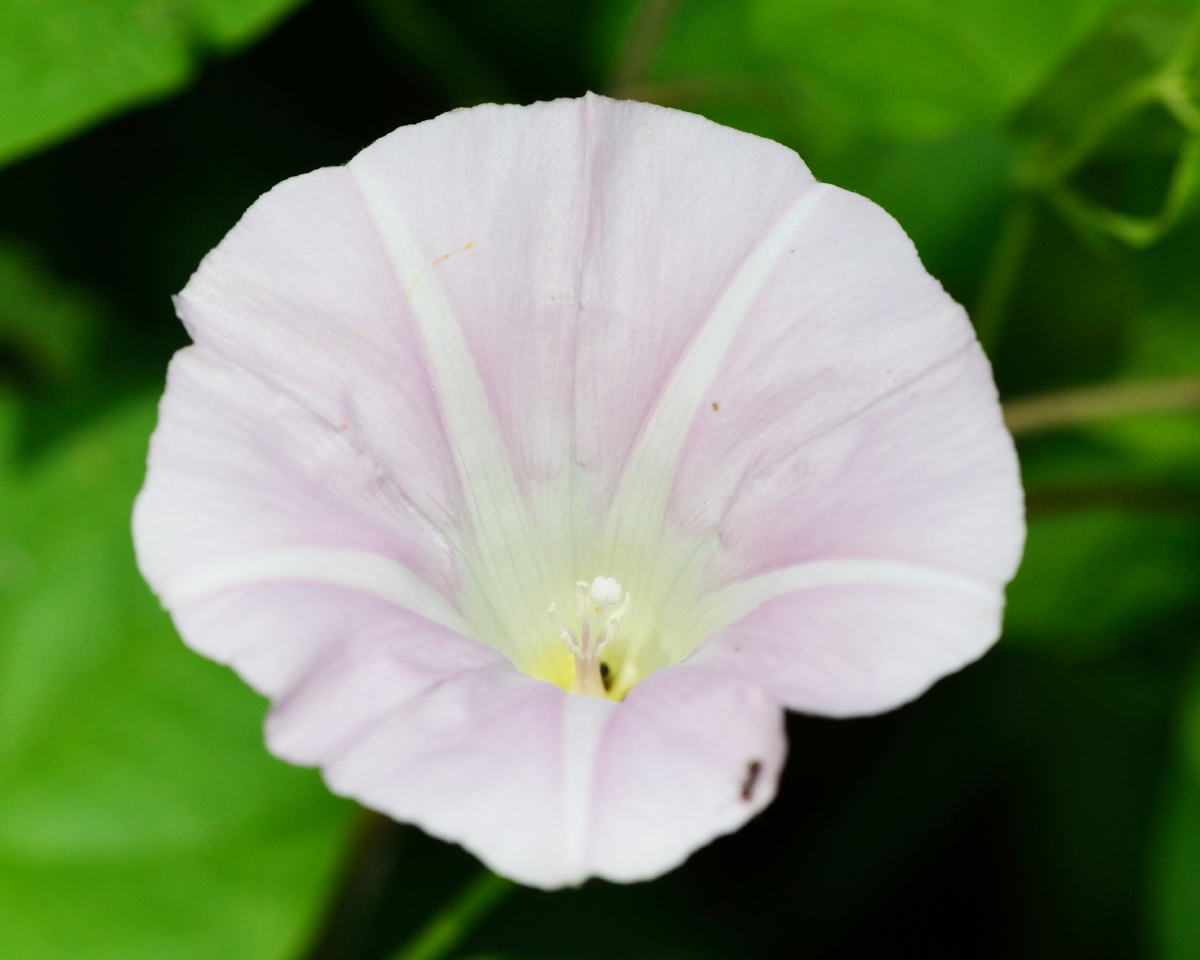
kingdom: Plantae
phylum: Tracheophyta
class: Magnoliopsida
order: Solanales
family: Convolvulaceae
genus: Calystegia
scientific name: Calystegia sepium
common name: Hedge bindweed
